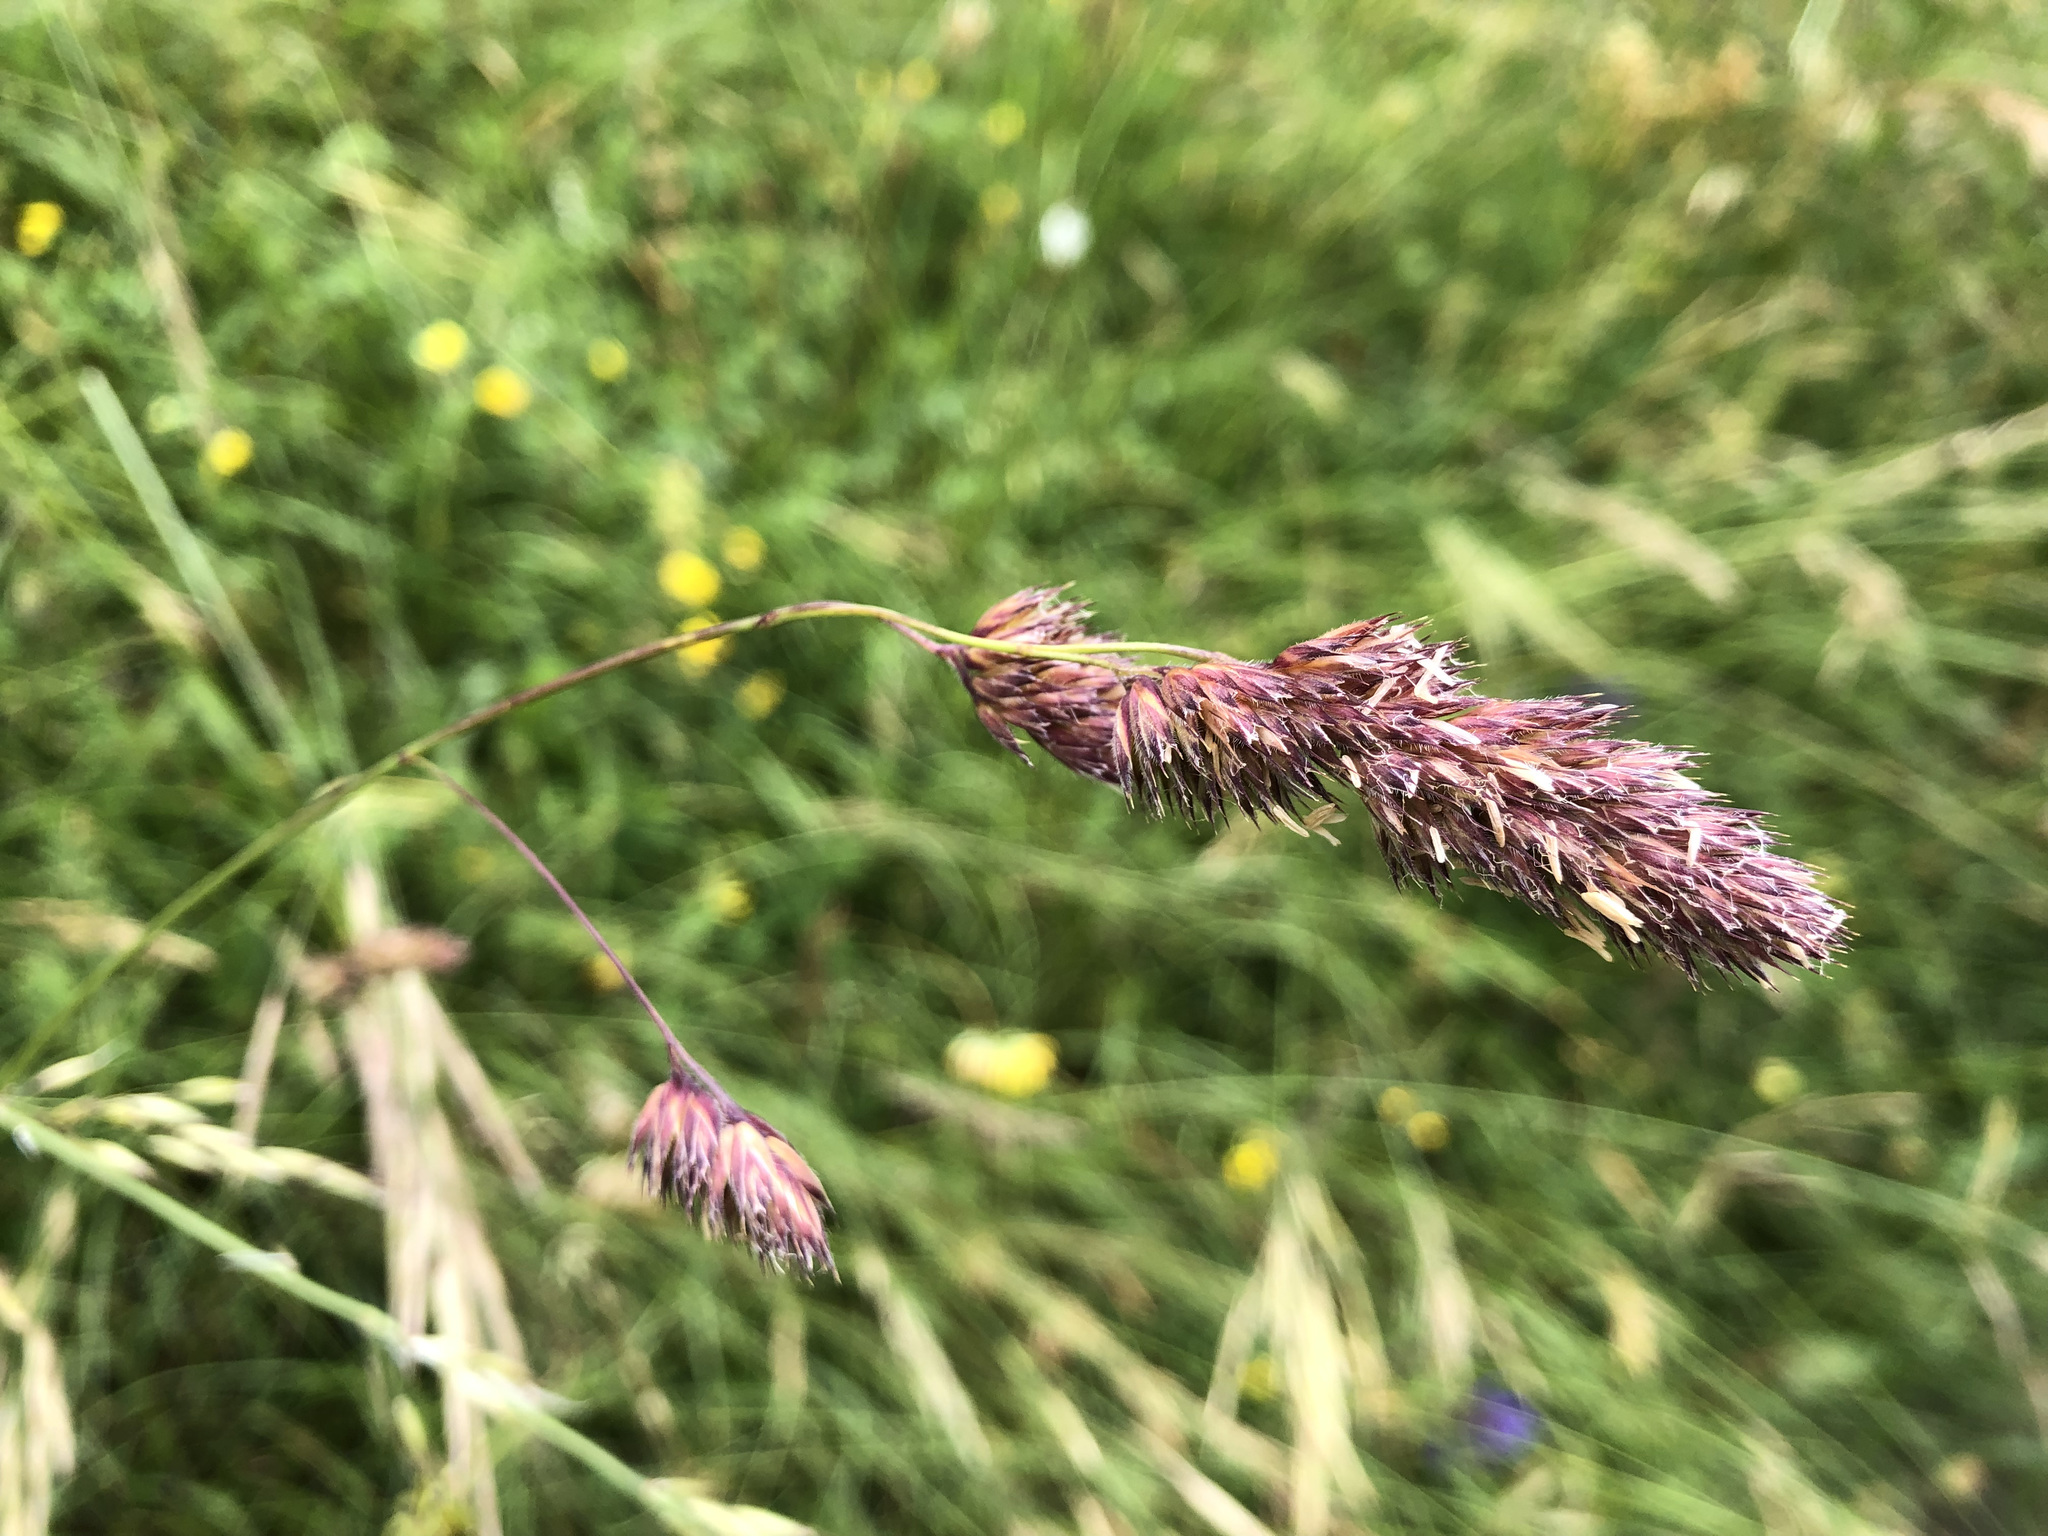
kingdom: Plantae
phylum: Tracheophyta
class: Liliopsida
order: Poales
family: Poaceae
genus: Dactylis
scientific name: Dactylis glomerata
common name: Orchardgrass
